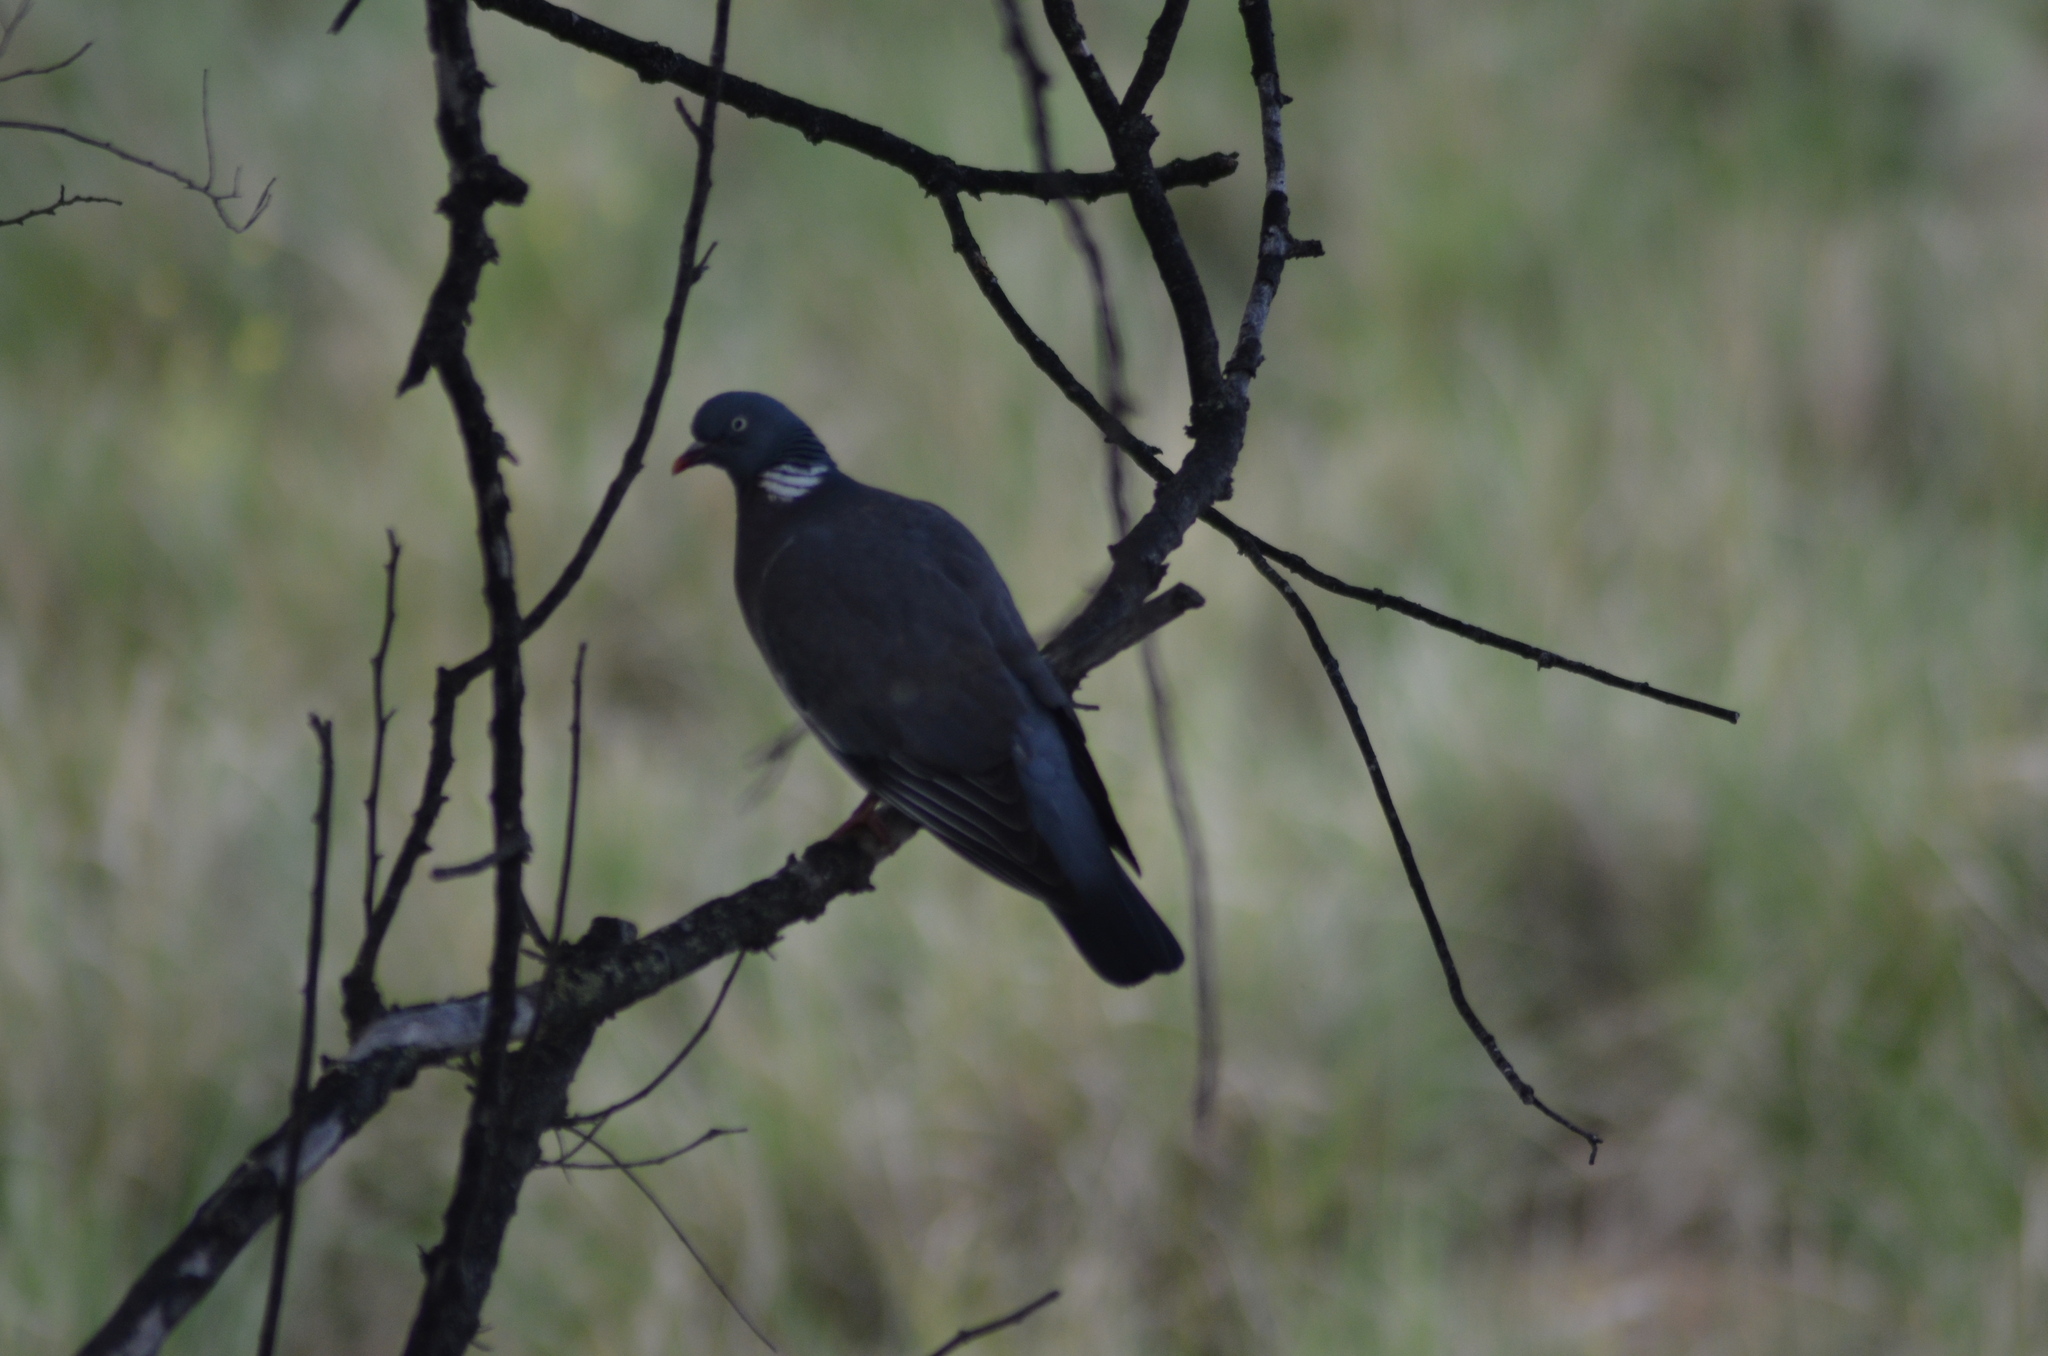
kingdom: Animalia
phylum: Chordata
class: Aves
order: Columbiformes
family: Columbidae
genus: Columba
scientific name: Columba palumbus
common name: Common wood pigeon
